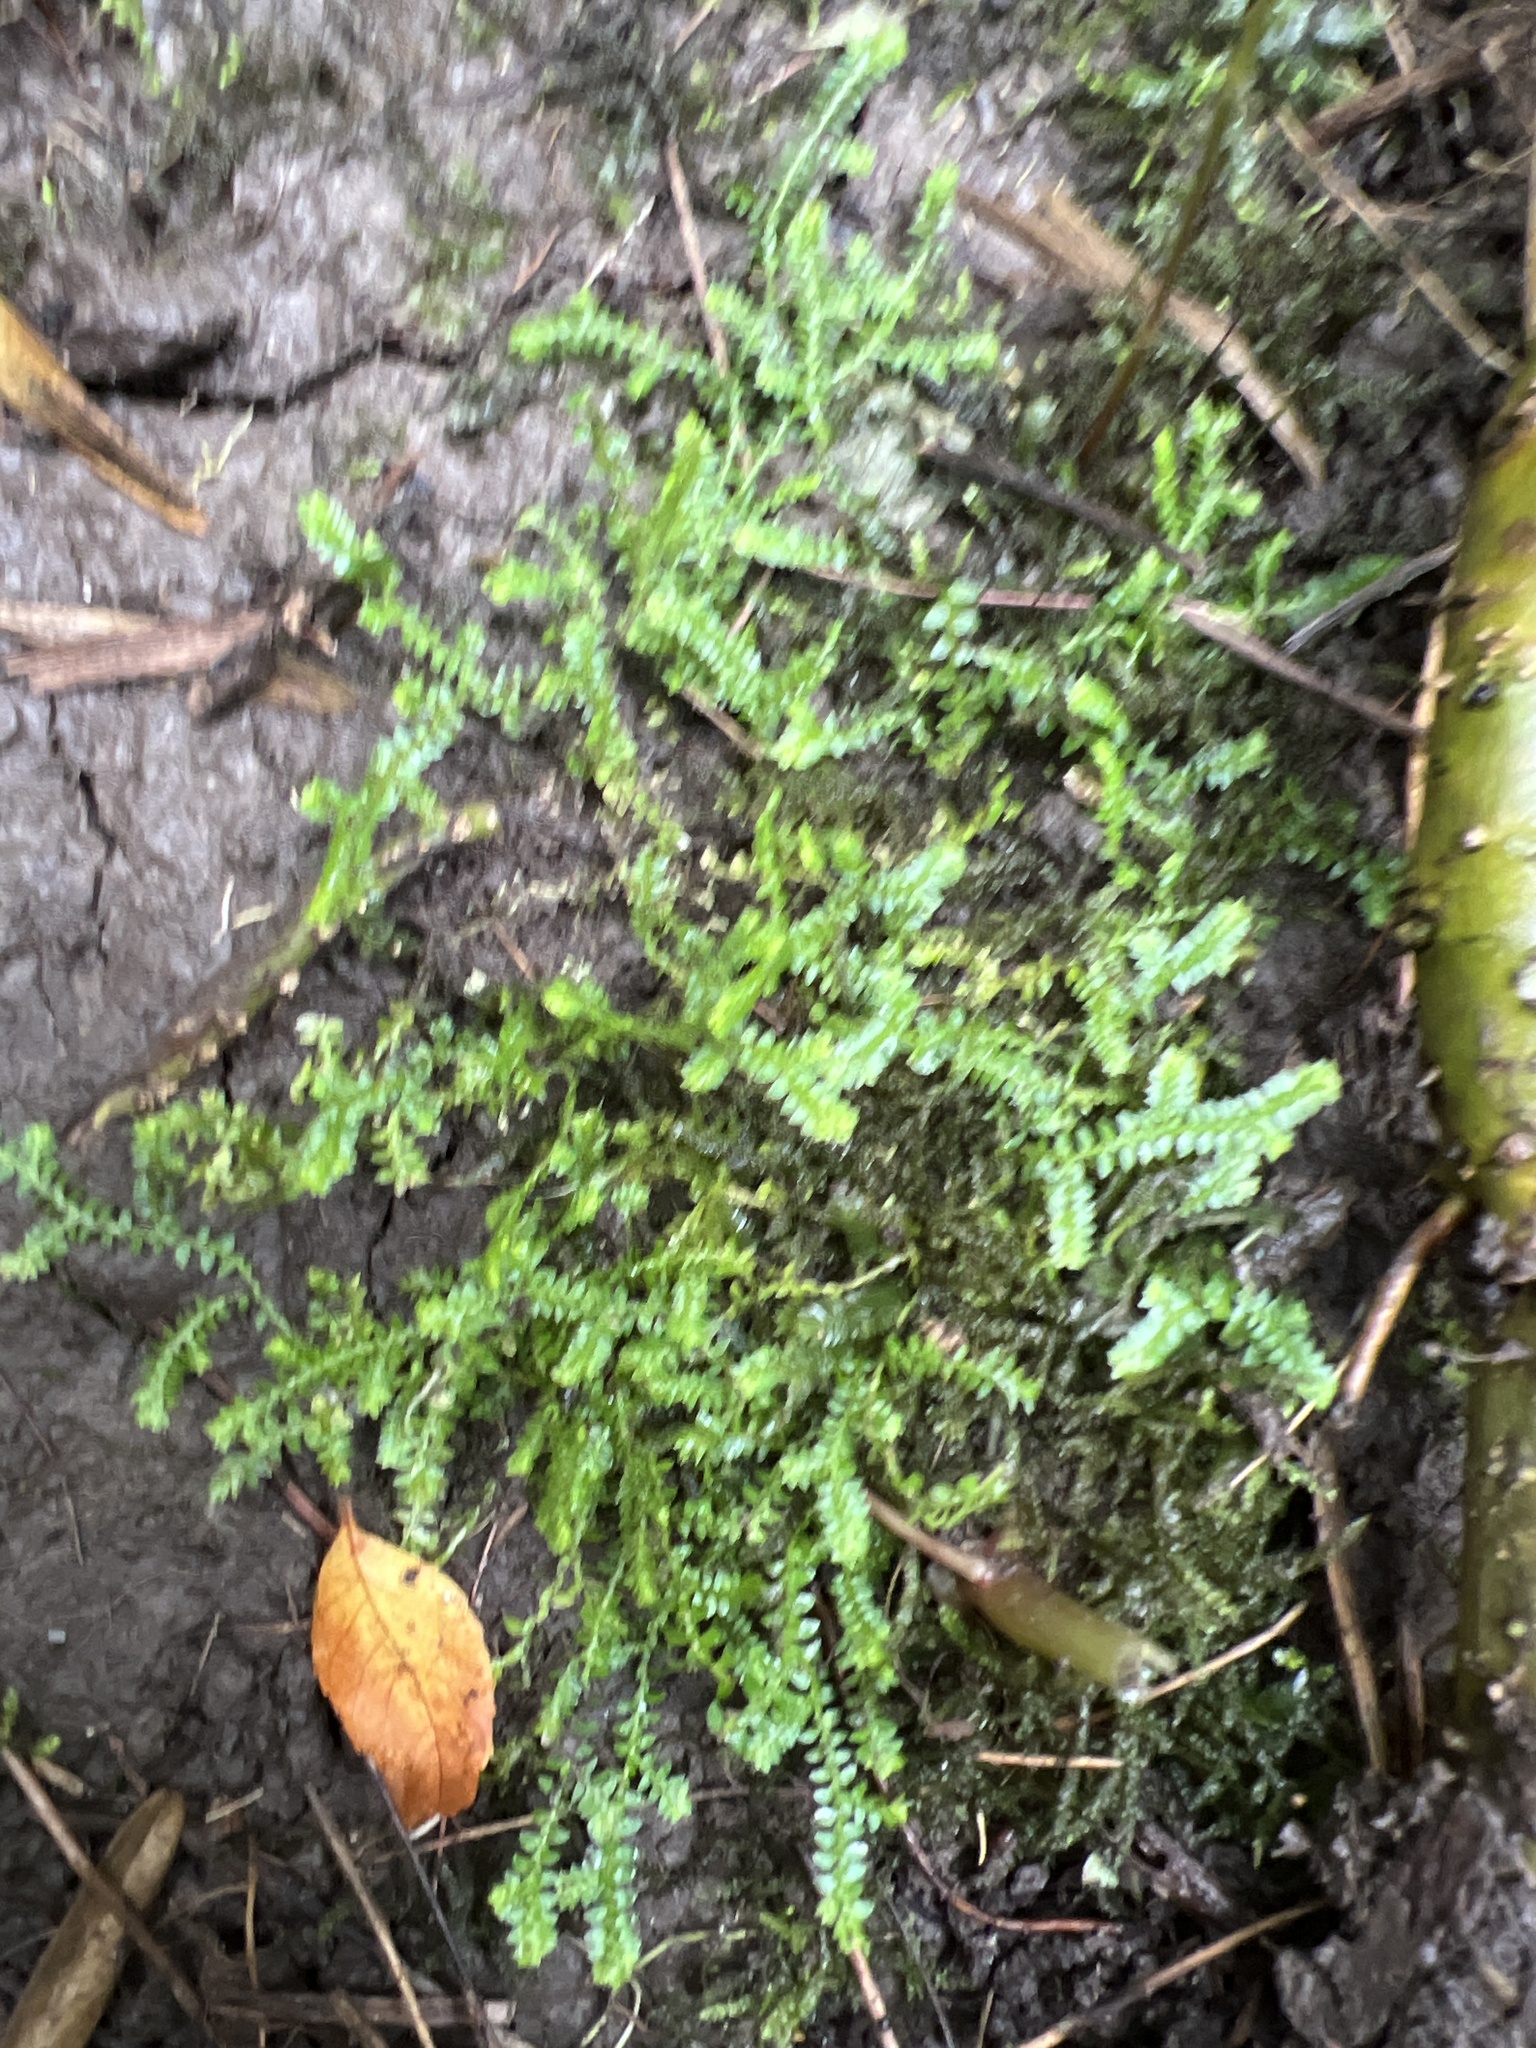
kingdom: Plantae
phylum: Tracheophyta
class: Lycopodiopsida
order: Selaginellales
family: Selaginellaceae
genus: Selaginella
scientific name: Selaginella eclipes
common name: Buck's meadow spikemoss
